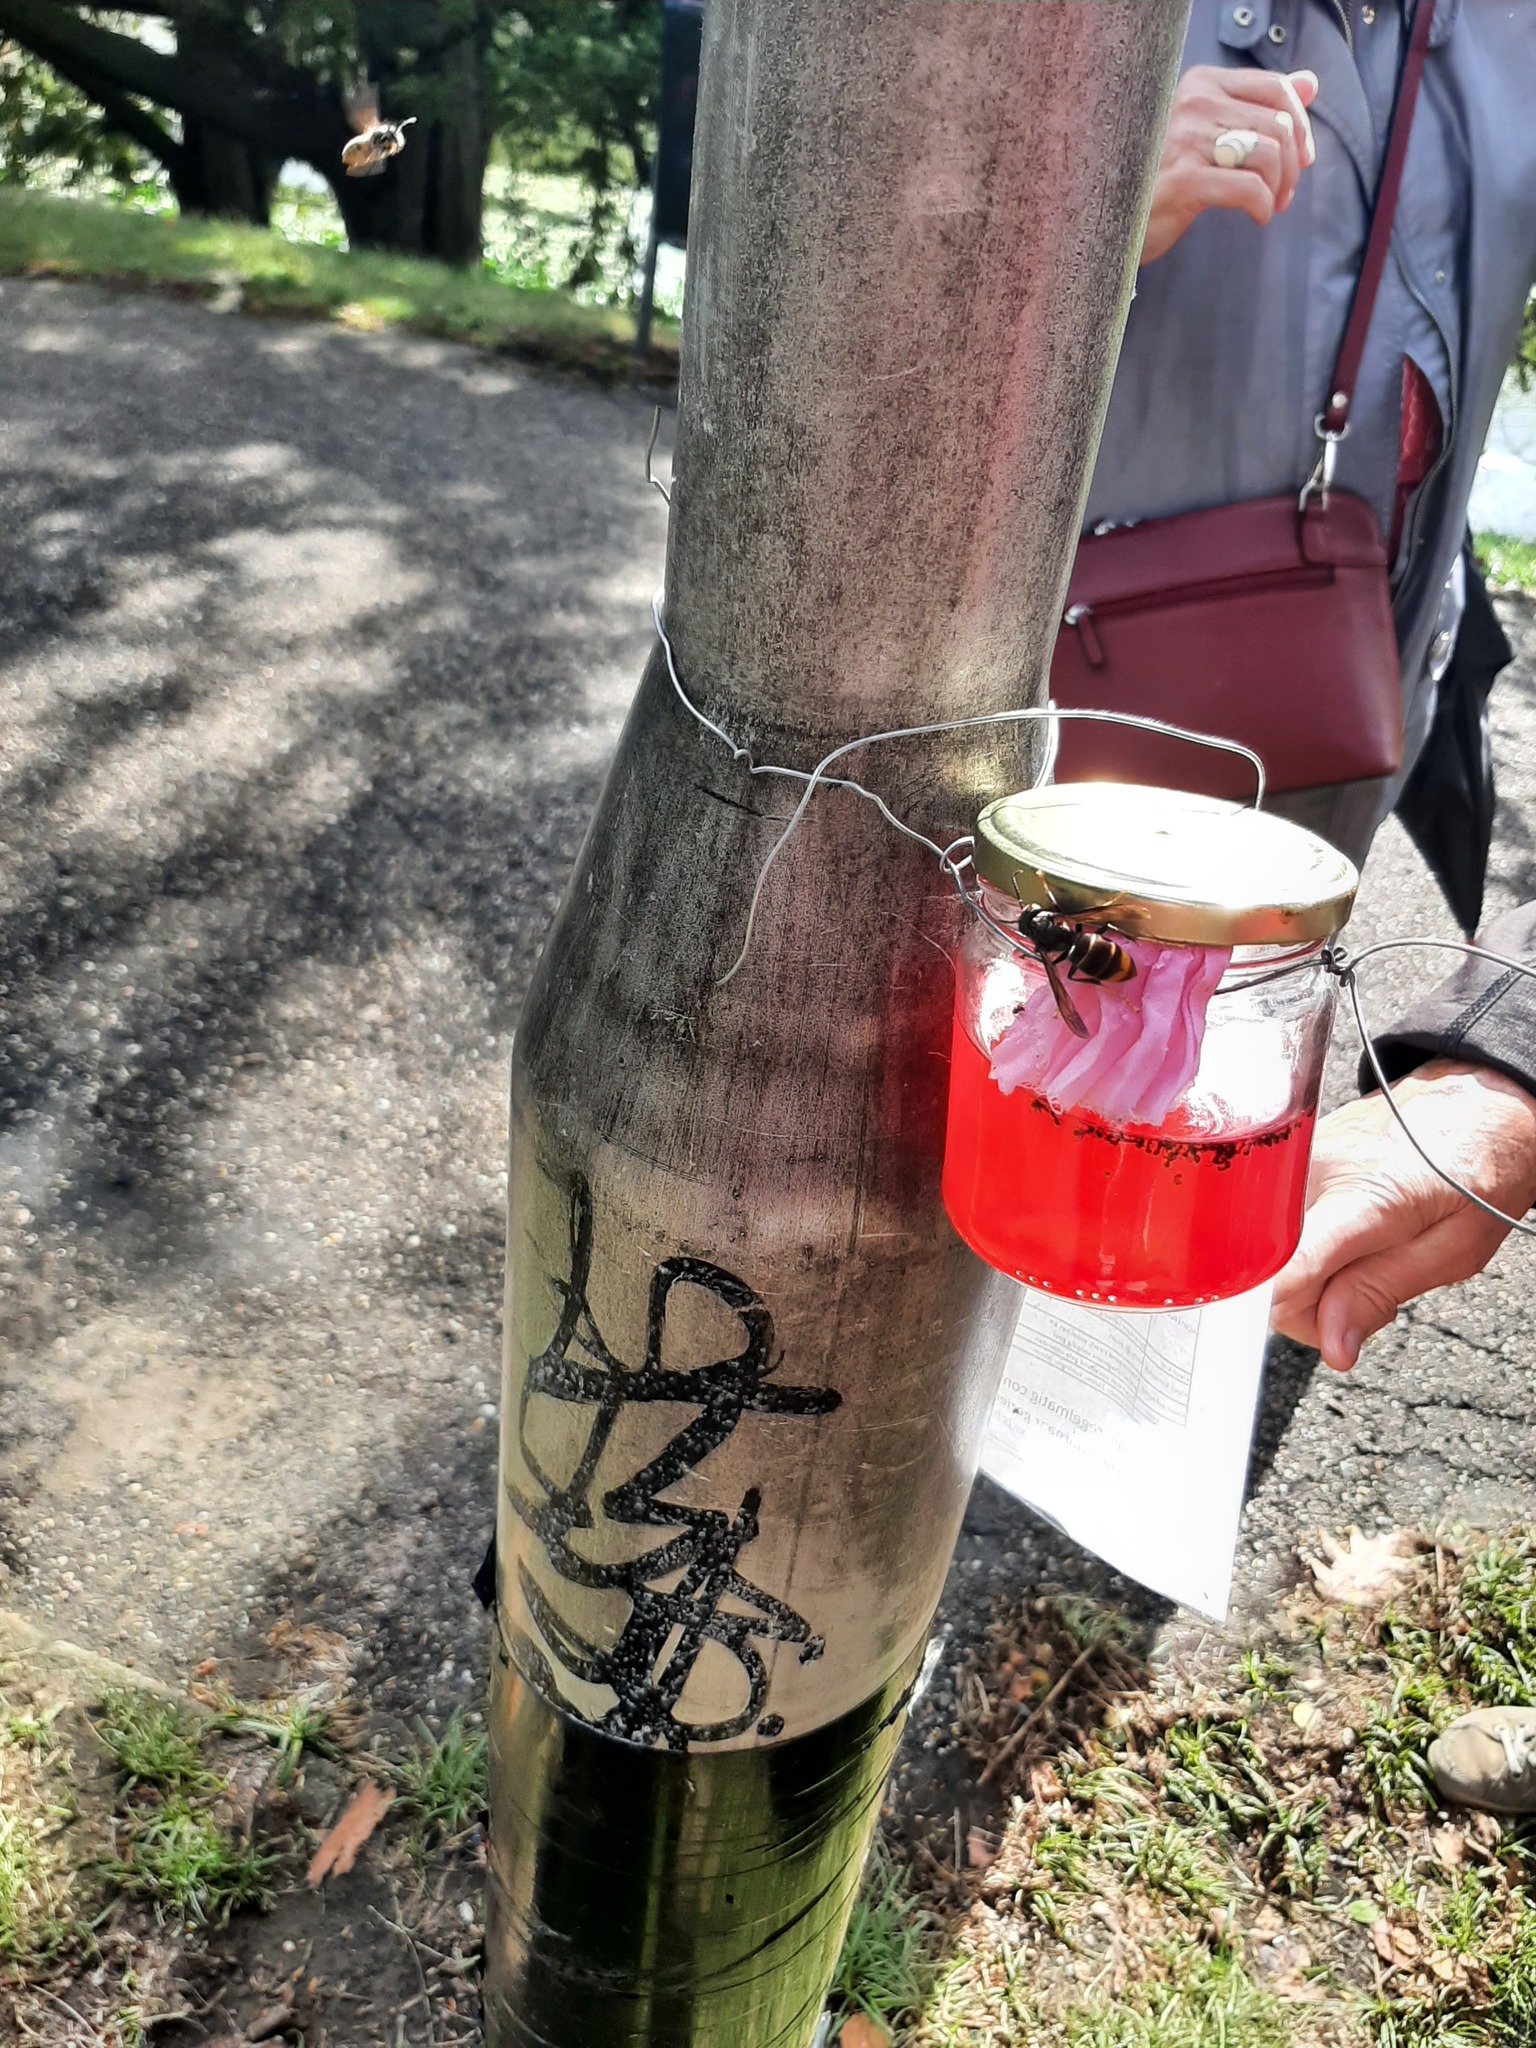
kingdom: Animalia
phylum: Arthropoda
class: Insecta
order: Hymenoptera
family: Vespidae
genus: Vespa
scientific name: Vespa velutina
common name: Asian hornet
